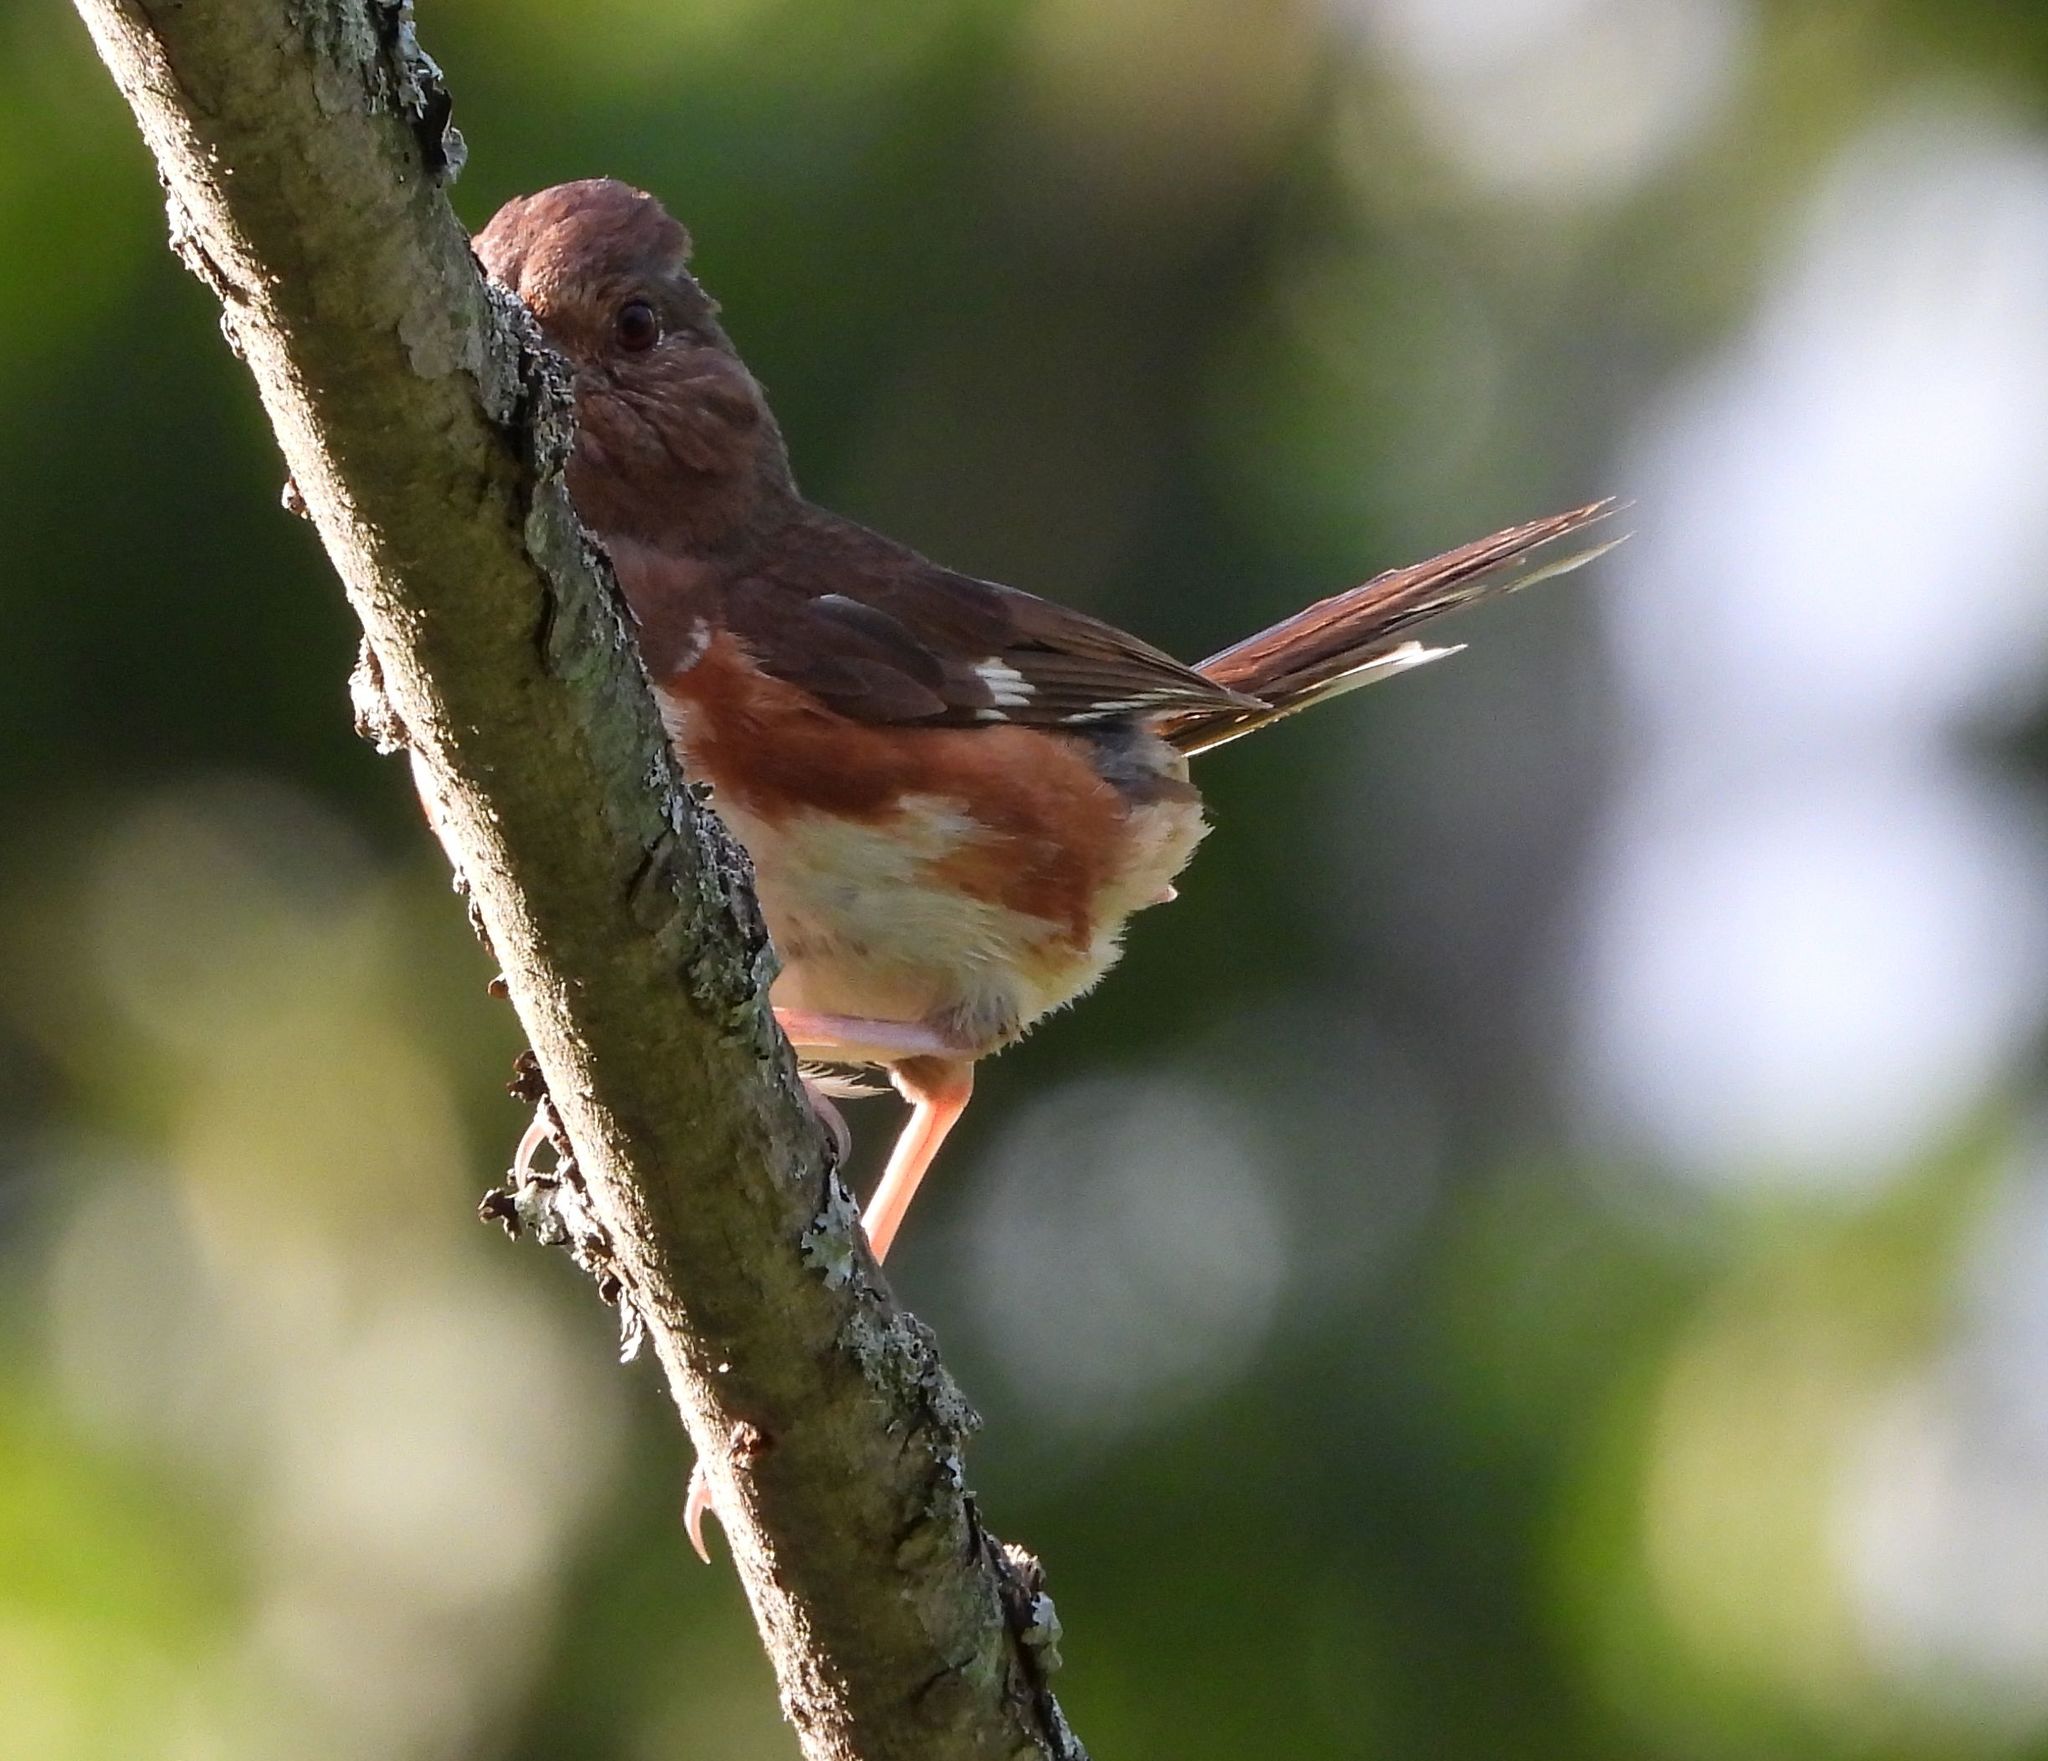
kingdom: Animalia
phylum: Chordata
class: Aves
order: Passeriformes
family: Passerellidae
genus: Pipilo
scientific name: Pipilo erythrophthalmus
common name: Eastern towhee
